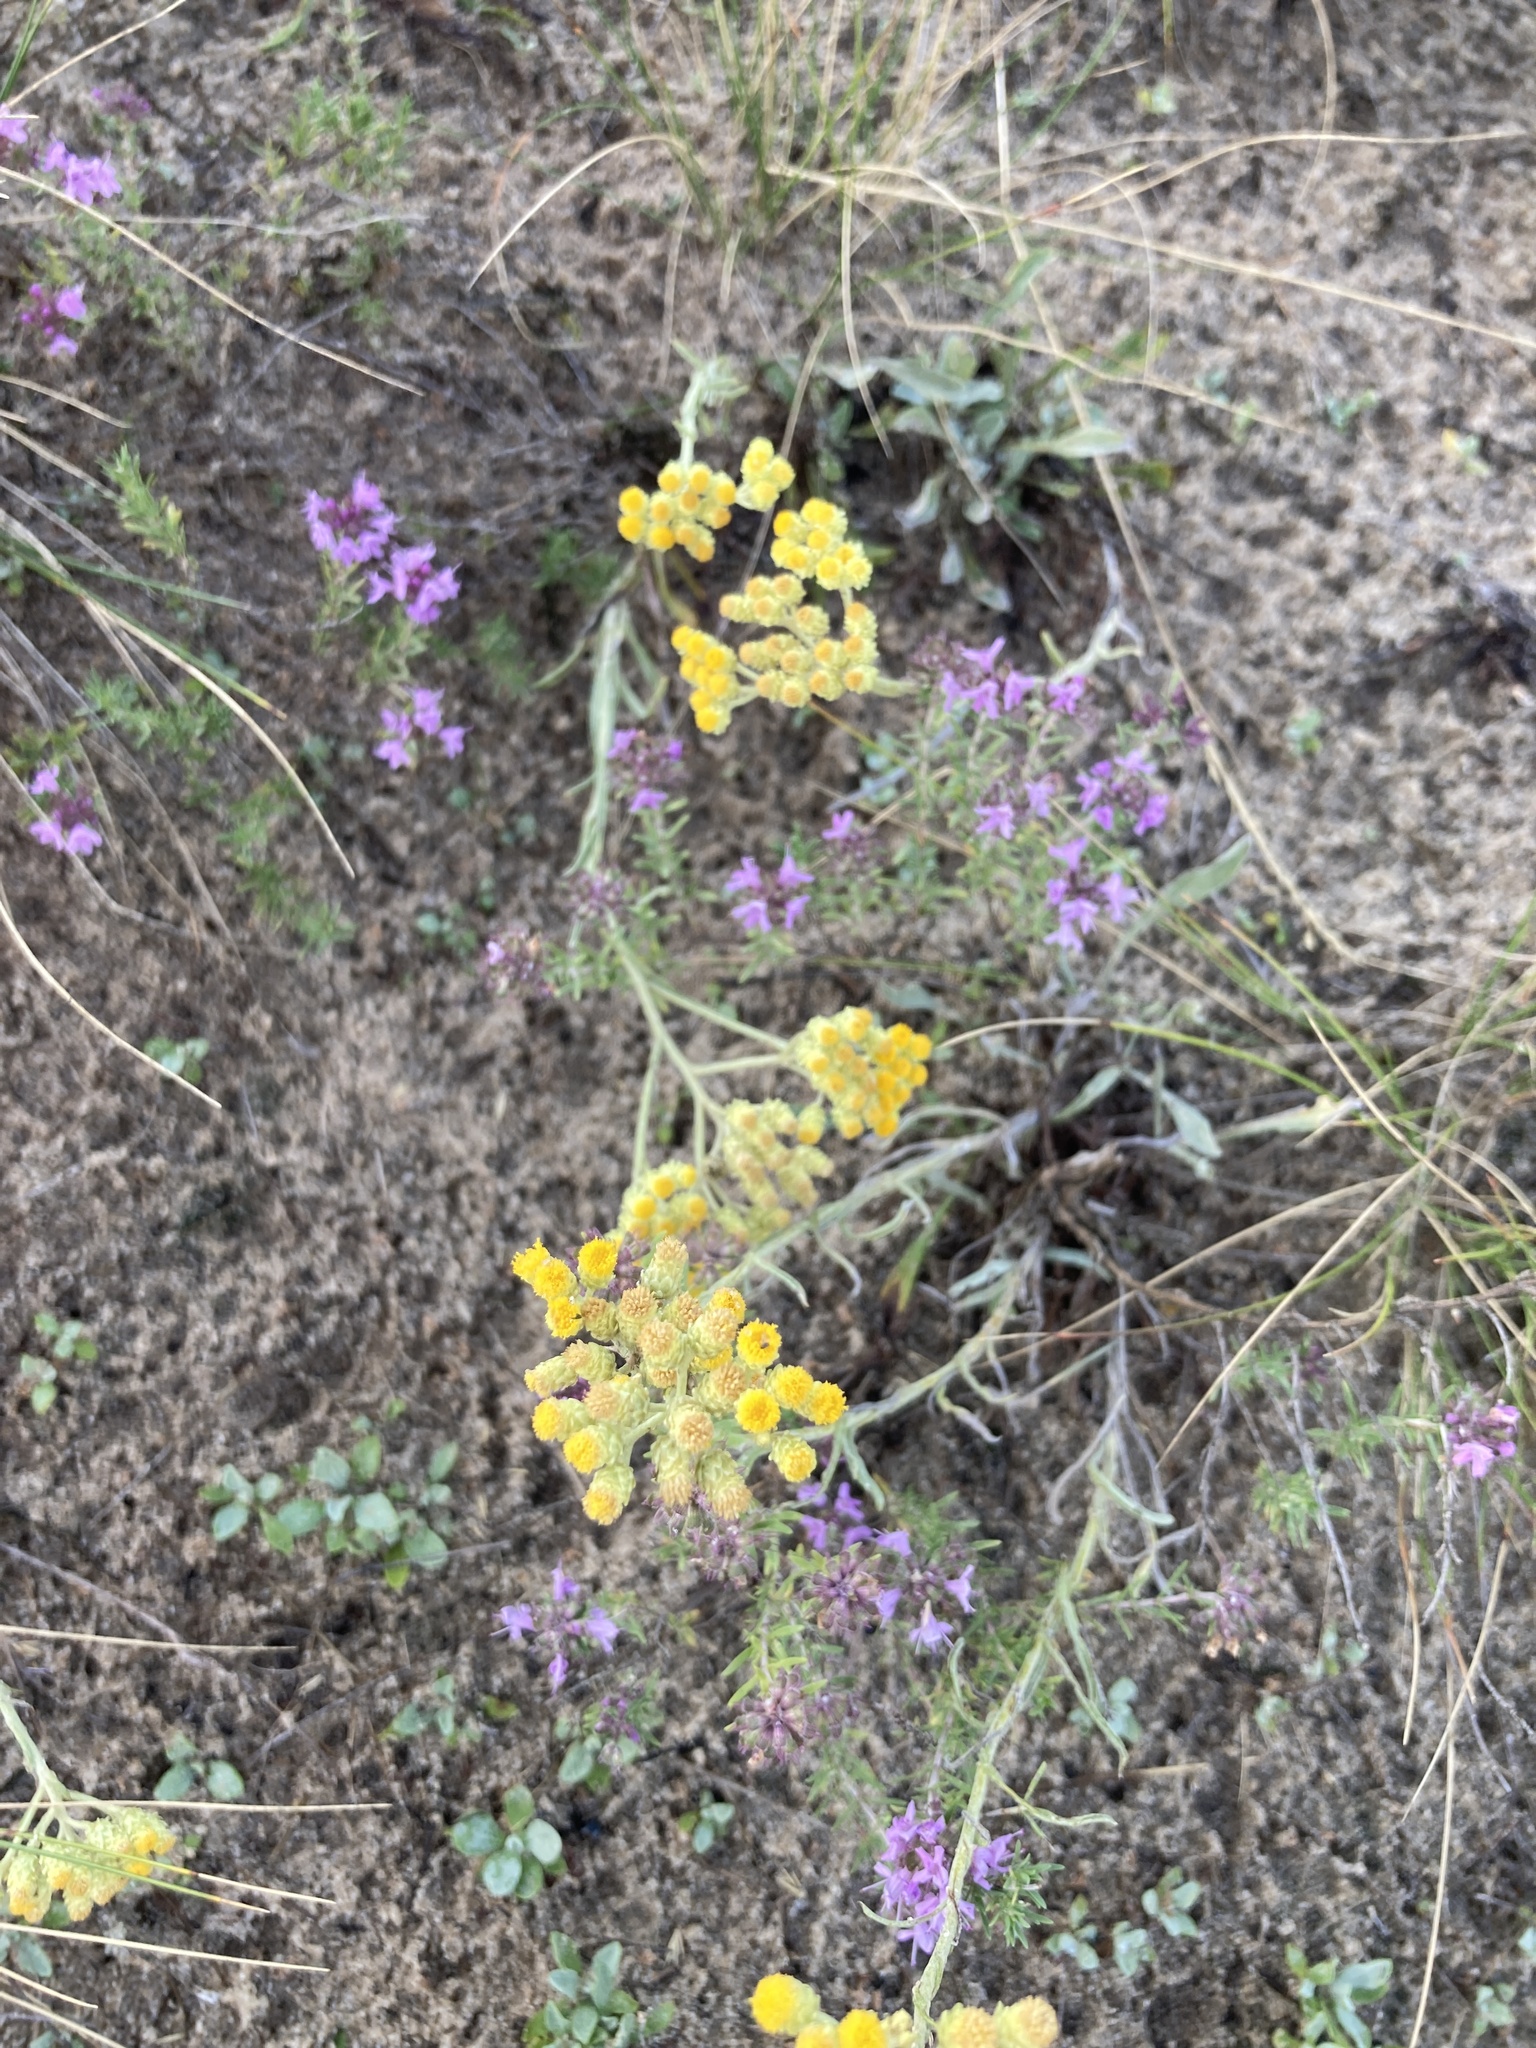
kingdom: Plantae
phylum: Tracheophyta
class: Magnoliopsida
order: Asterales
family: Asteraceae
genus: Helichrysum
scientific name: Helichrysum arenarium
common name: Strawflower
